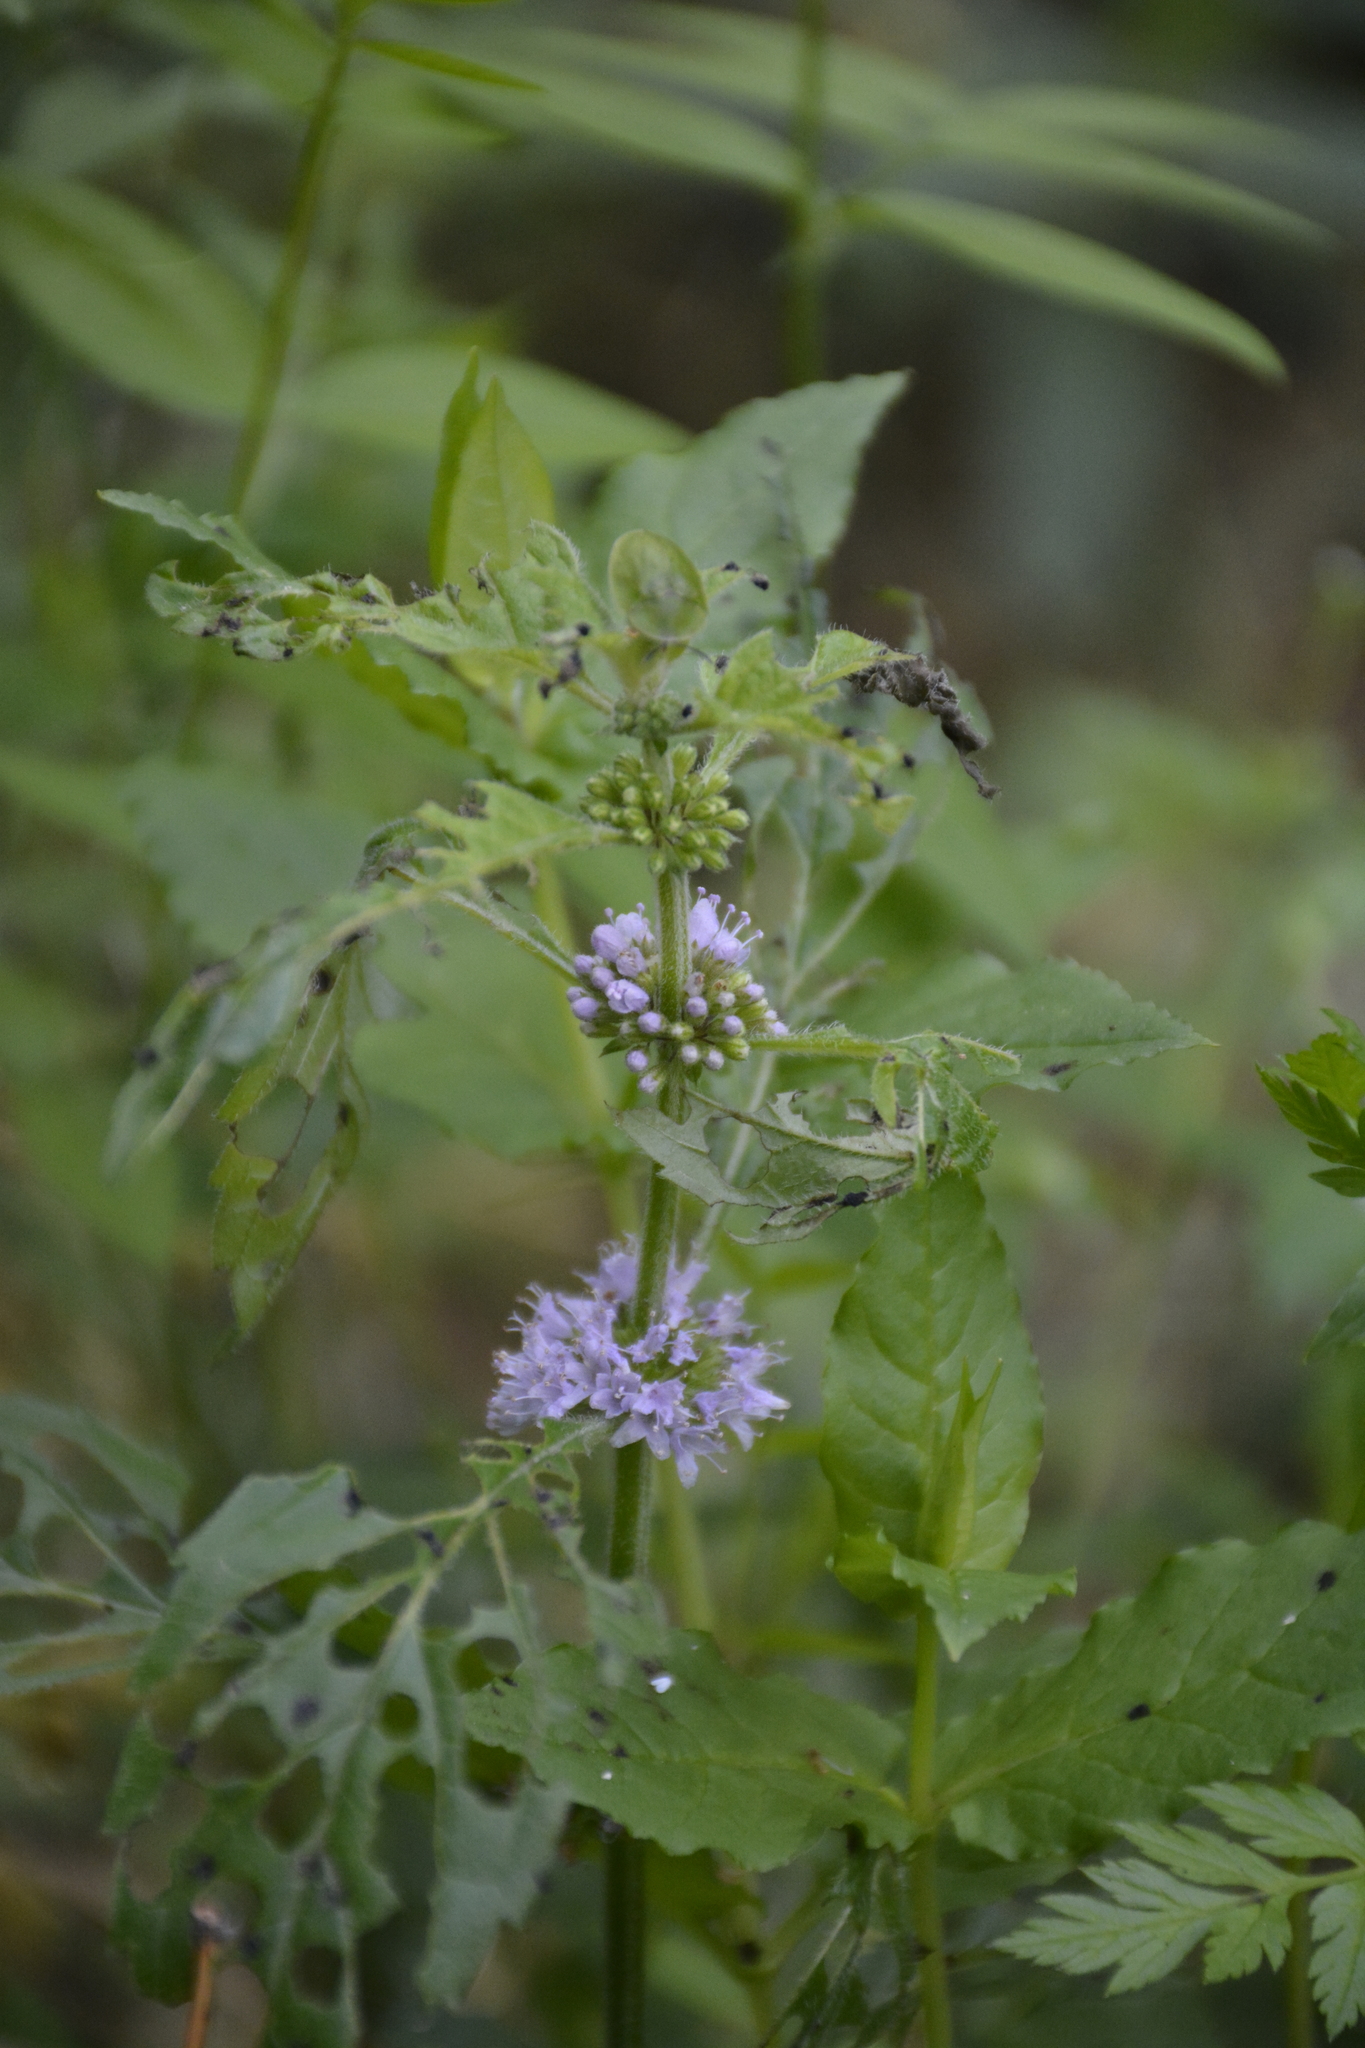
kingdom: Plantae
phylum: Tracheophyta
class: Magnoliopsida
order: Lamiales
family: Lamiaceae
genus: Mentha
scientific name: Mentha arvensis
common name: Corn mint
